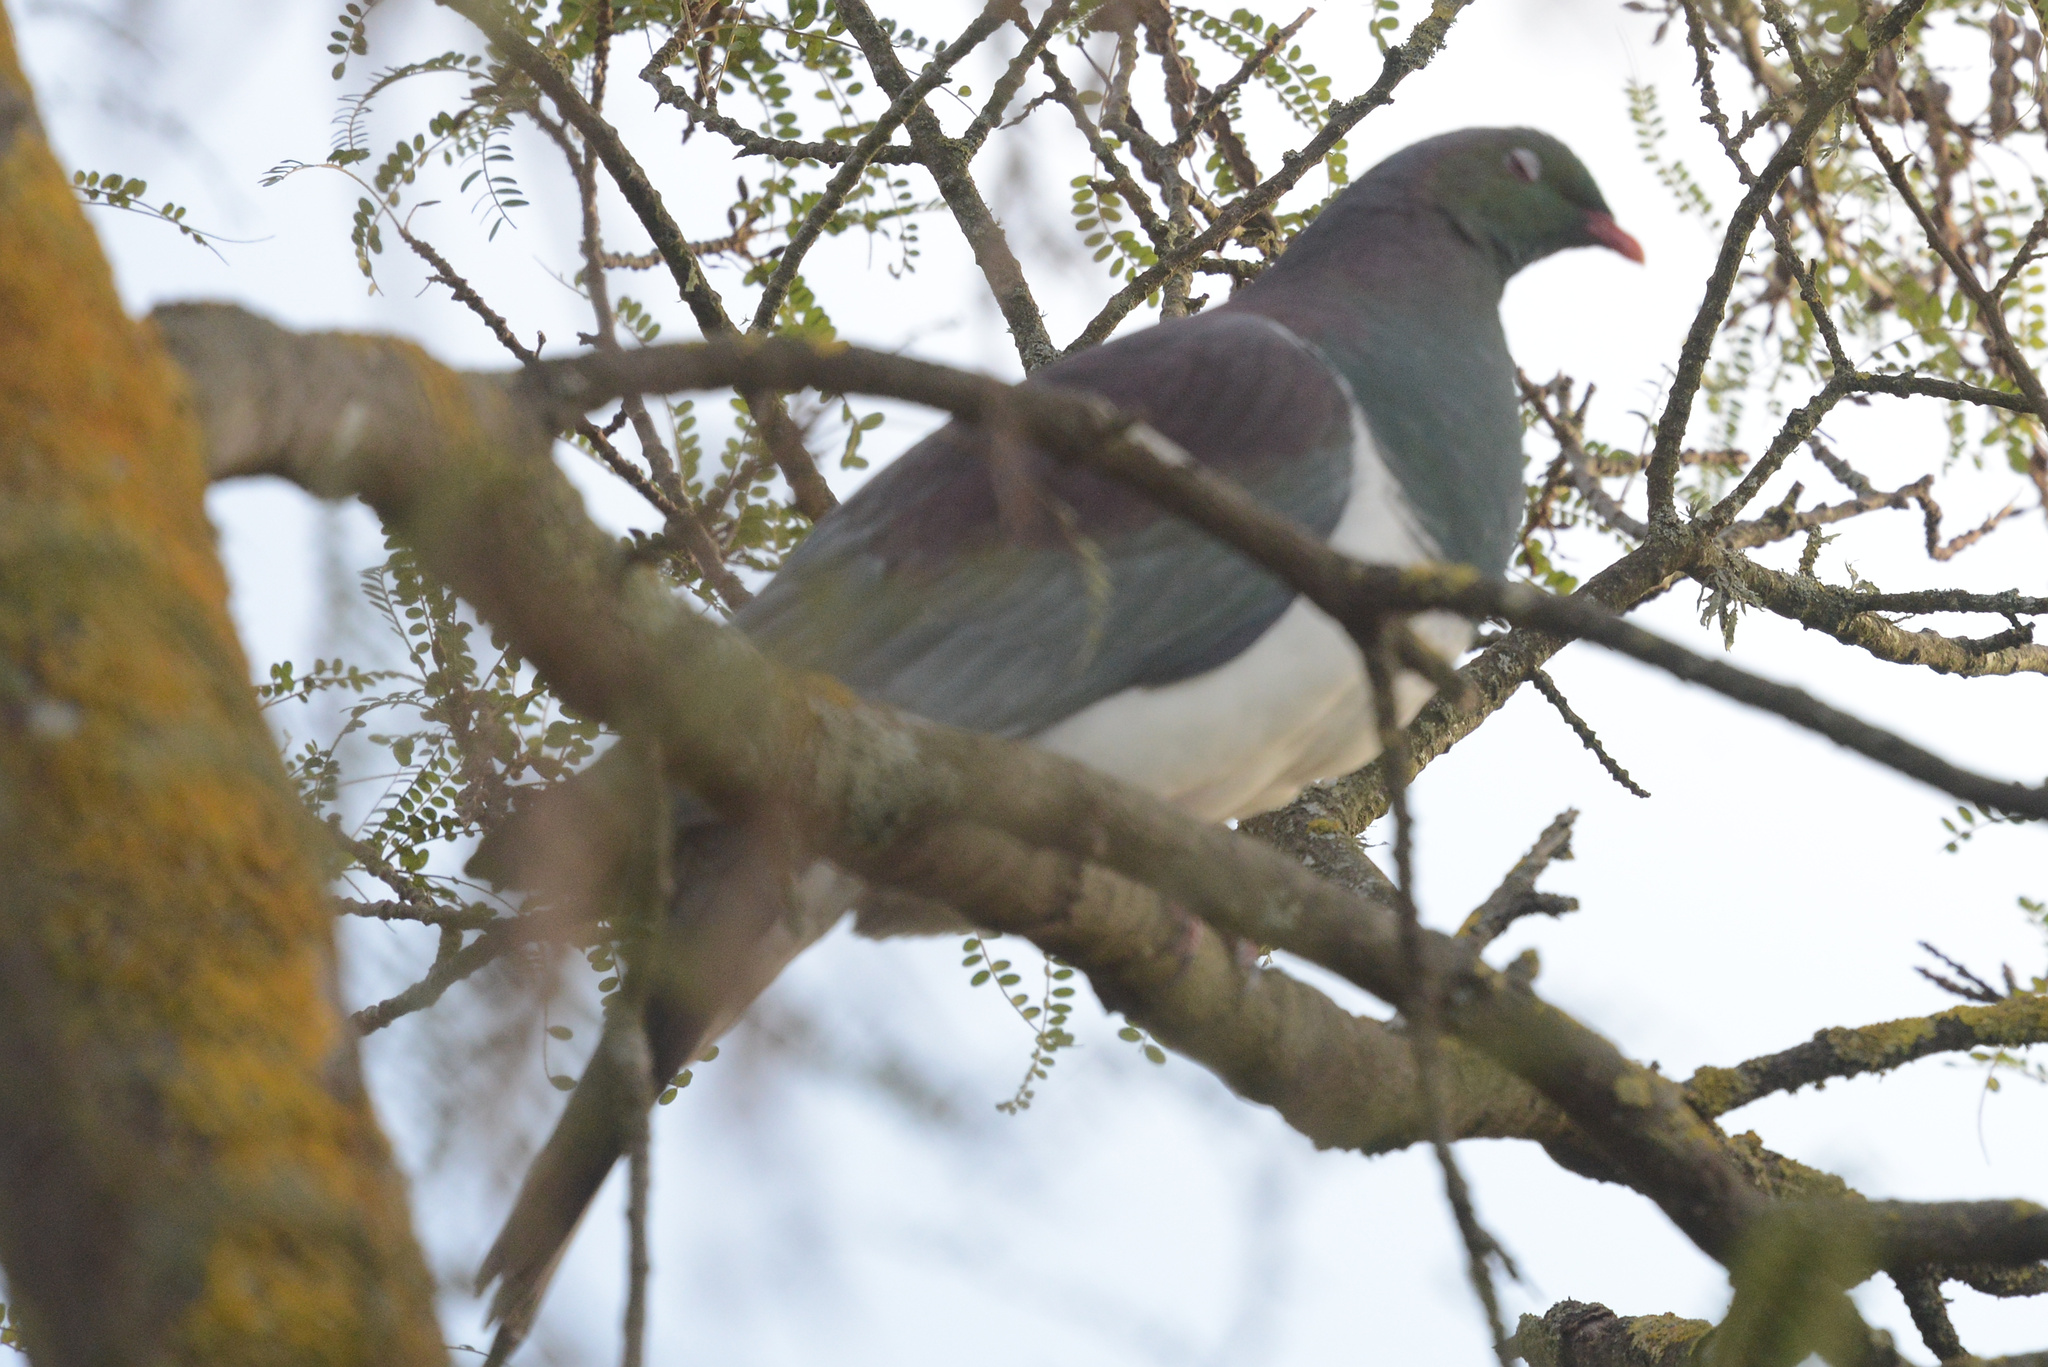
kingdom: Animalia
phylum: Chordata
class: Aves
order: Columbiformes
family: Columbidae
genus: Hemiphaga
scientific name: Hemiphaga novaeseelandiae
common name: New zealand pigeon
